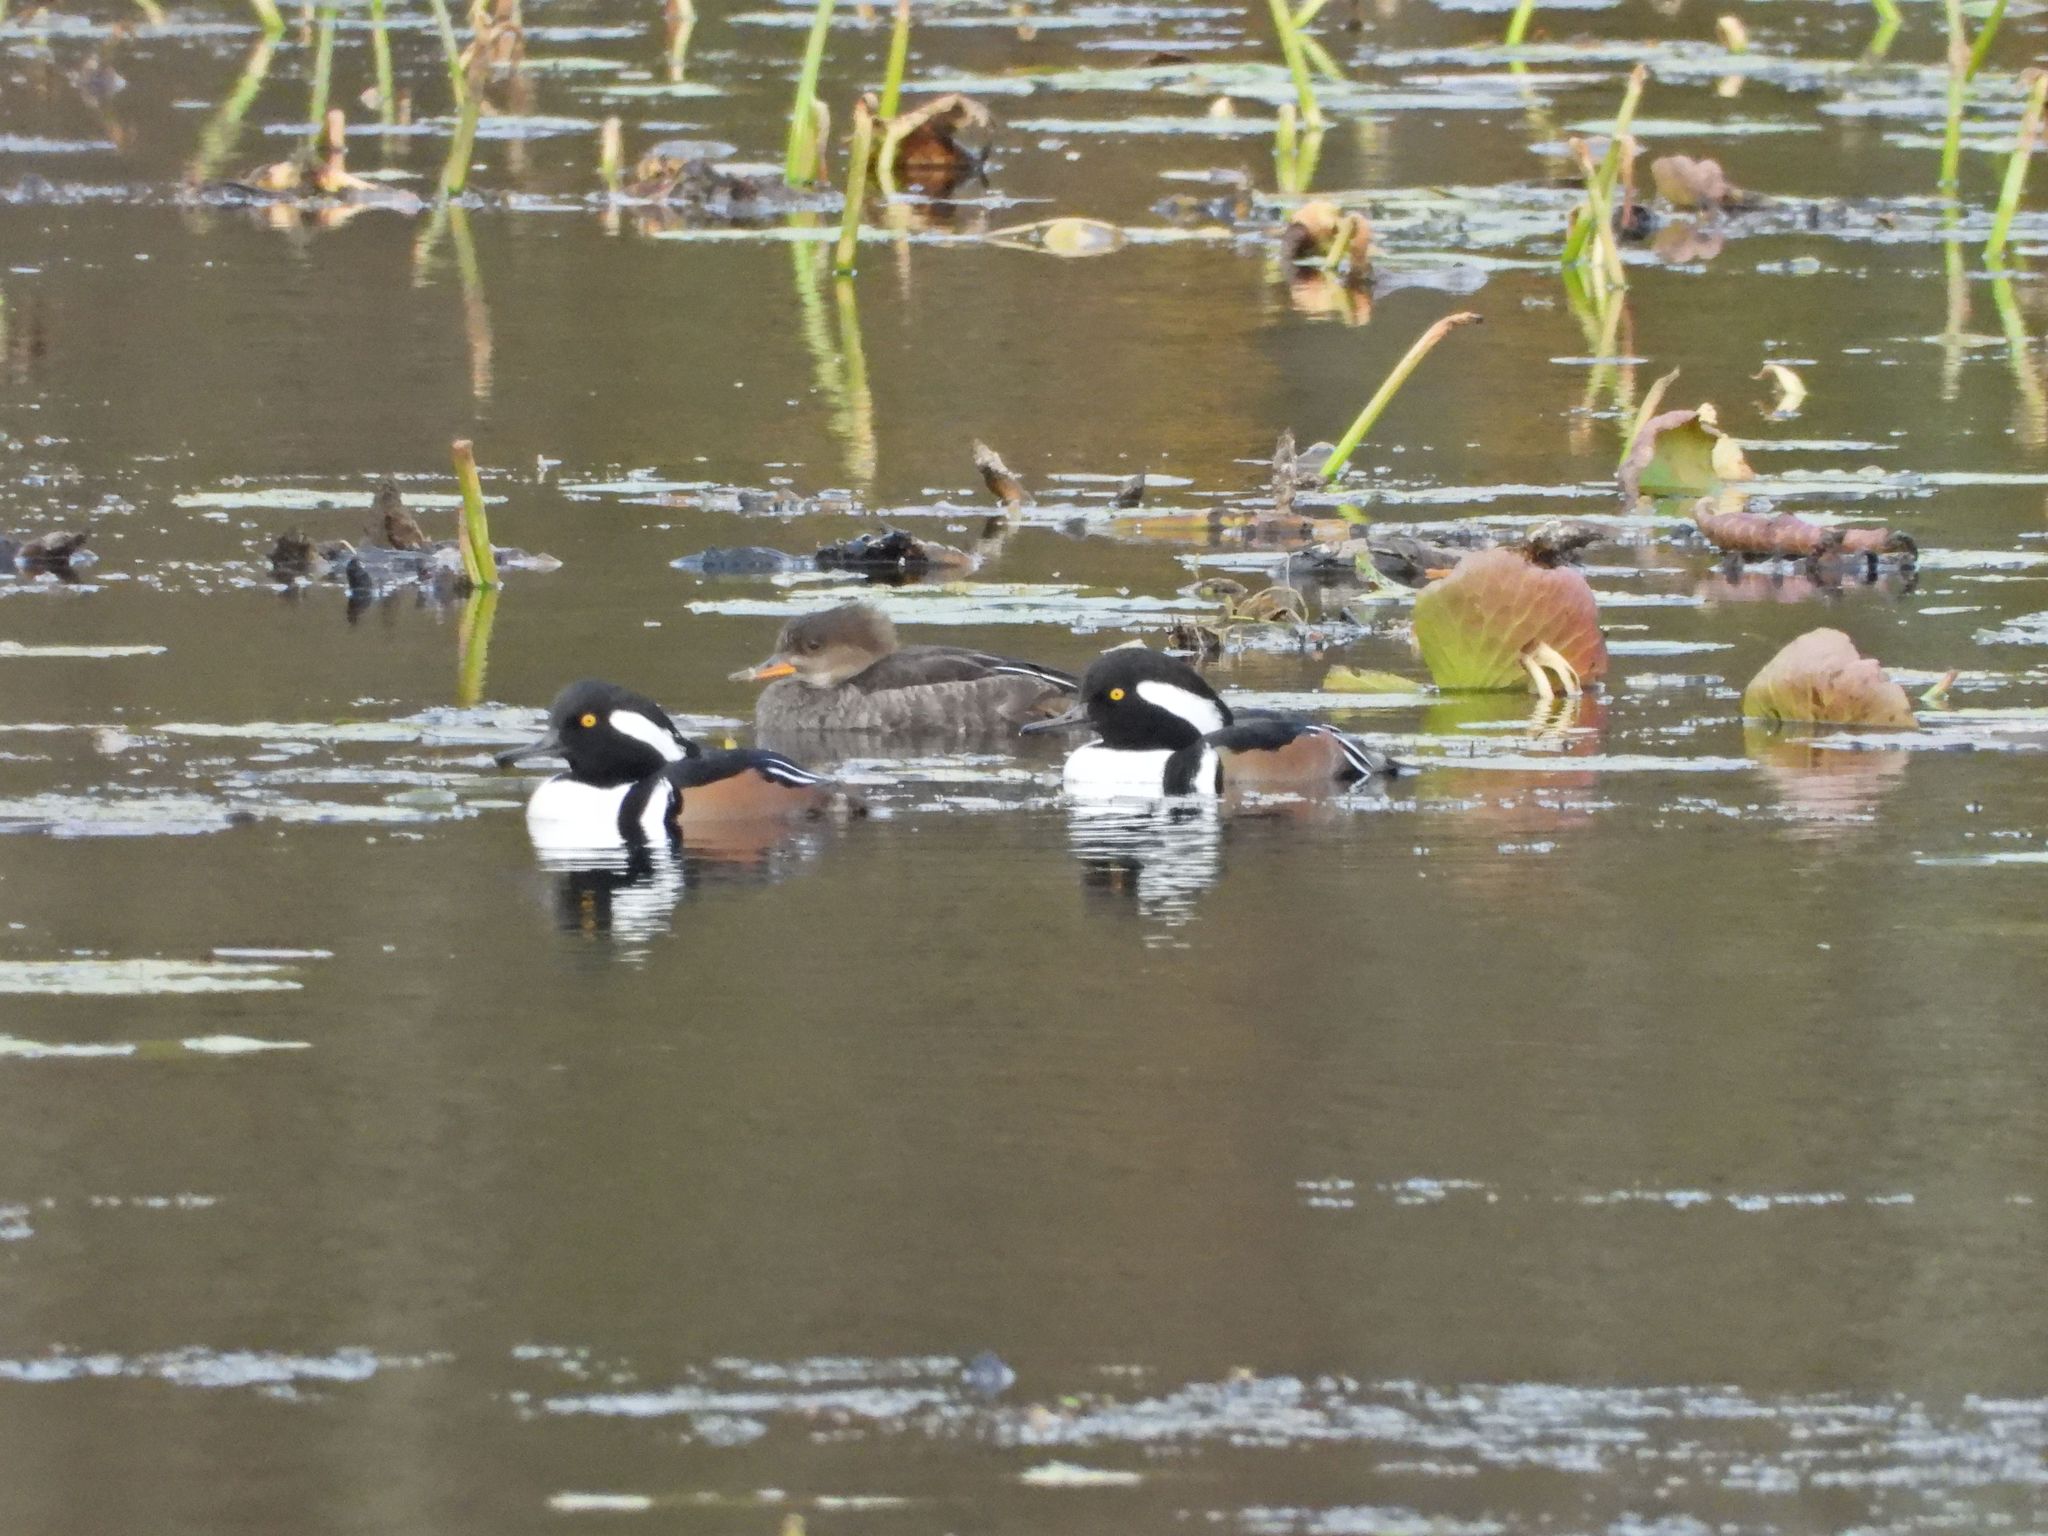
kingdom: Animalia
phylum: Chordata
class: Aves
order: Anseriformes
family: Anatidae
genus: Lophodytes
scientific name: Lophodytes cucullatus
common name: Hooded merganser
